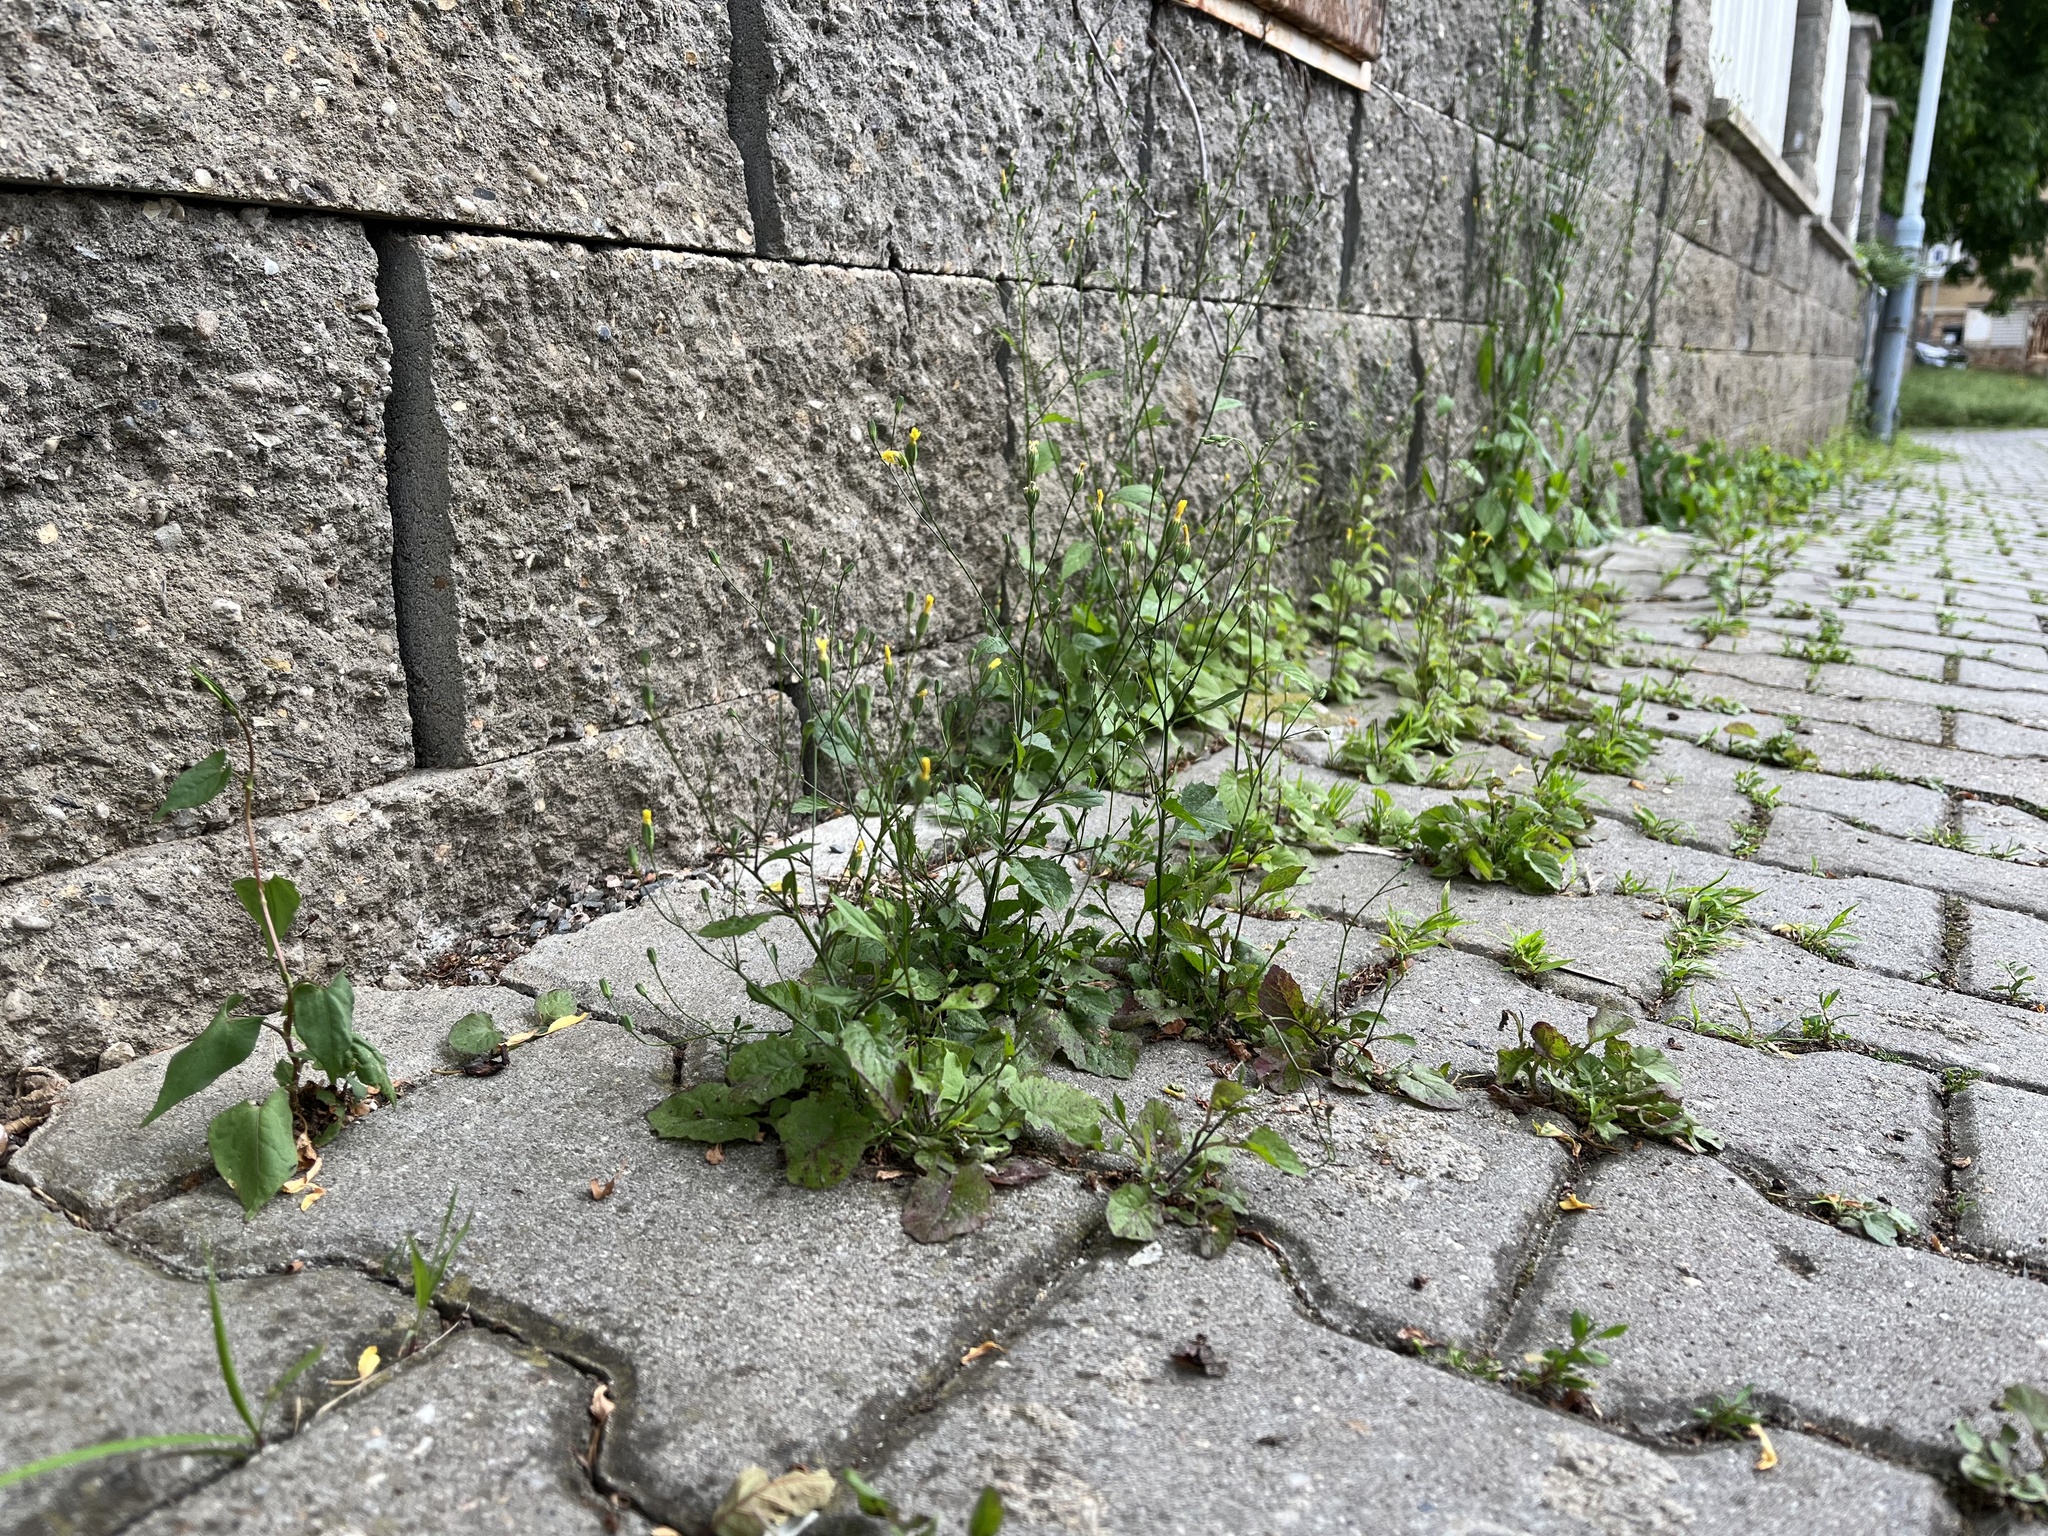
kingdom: Plantae
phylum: Tracheophyta
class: Magnoliopsida
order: Asterales
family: Asteraceae
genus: Lapsana
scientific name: Lapsana communis
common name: Nipplewort
